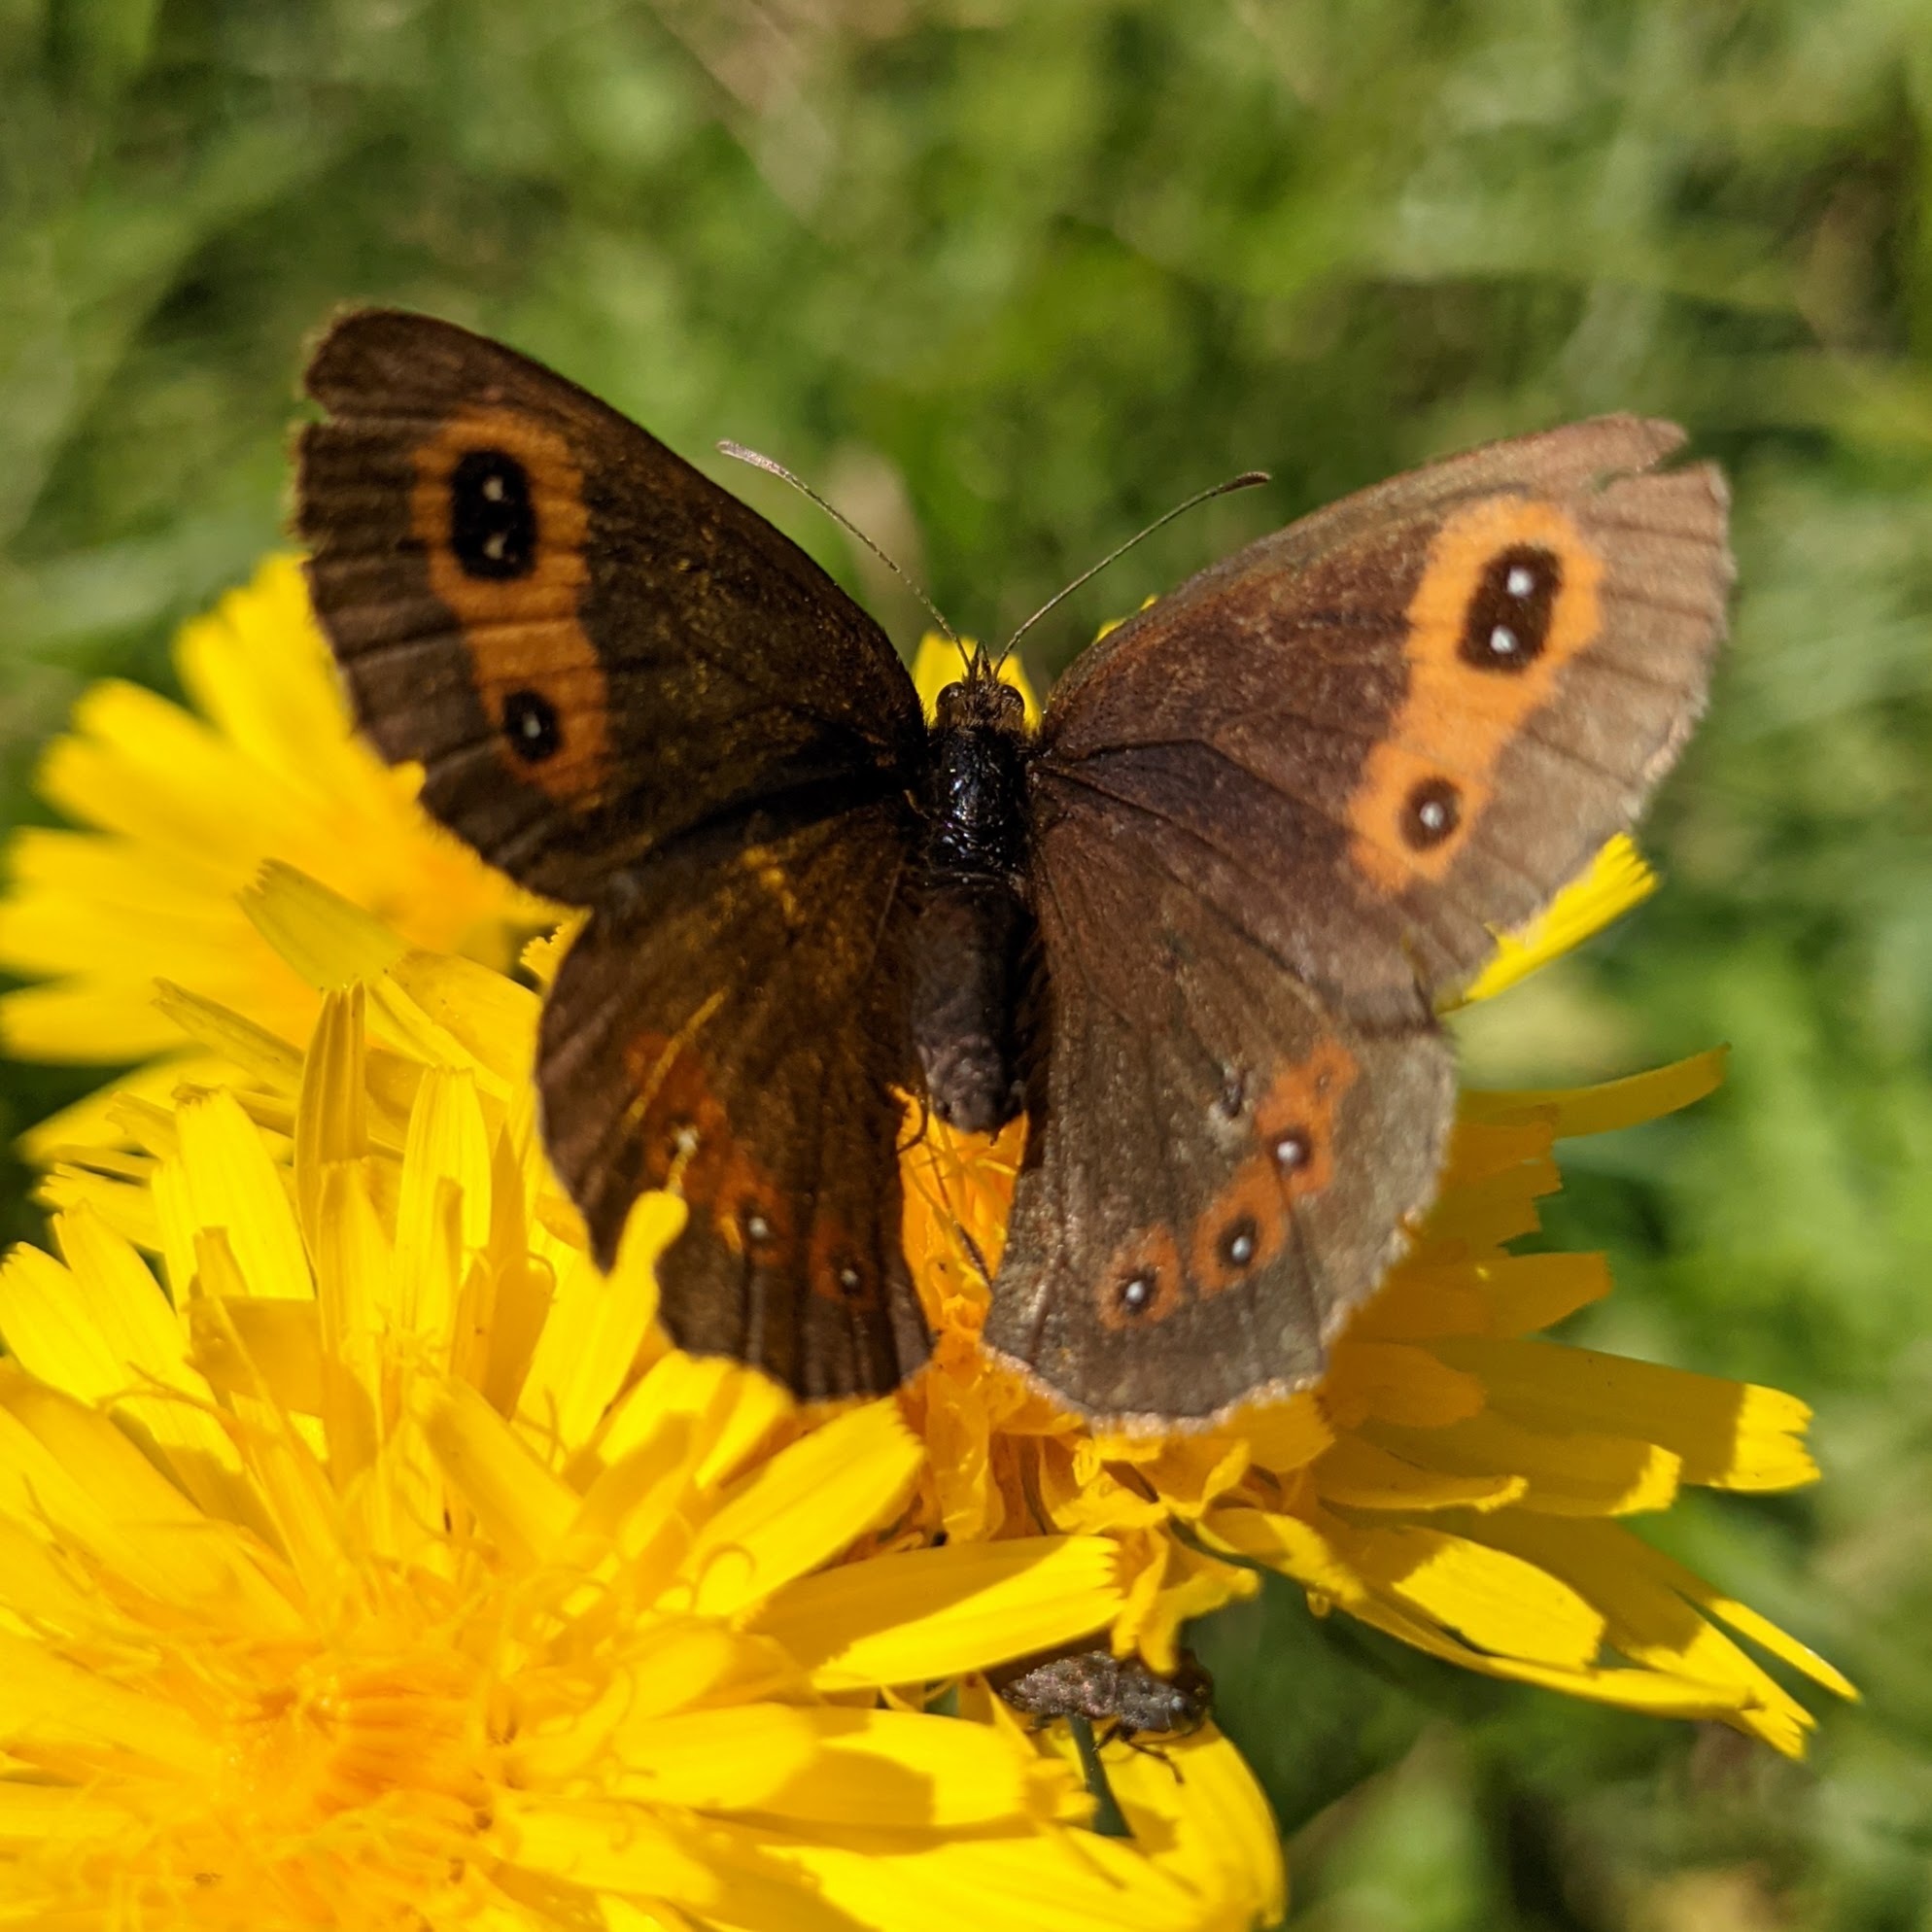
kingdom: Animalia
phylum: Arthropoda
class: Insecta
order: Lepidoptera
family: Nymphalidae
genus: Erebia
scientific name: Erebia aethiops
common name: Scotch argus
